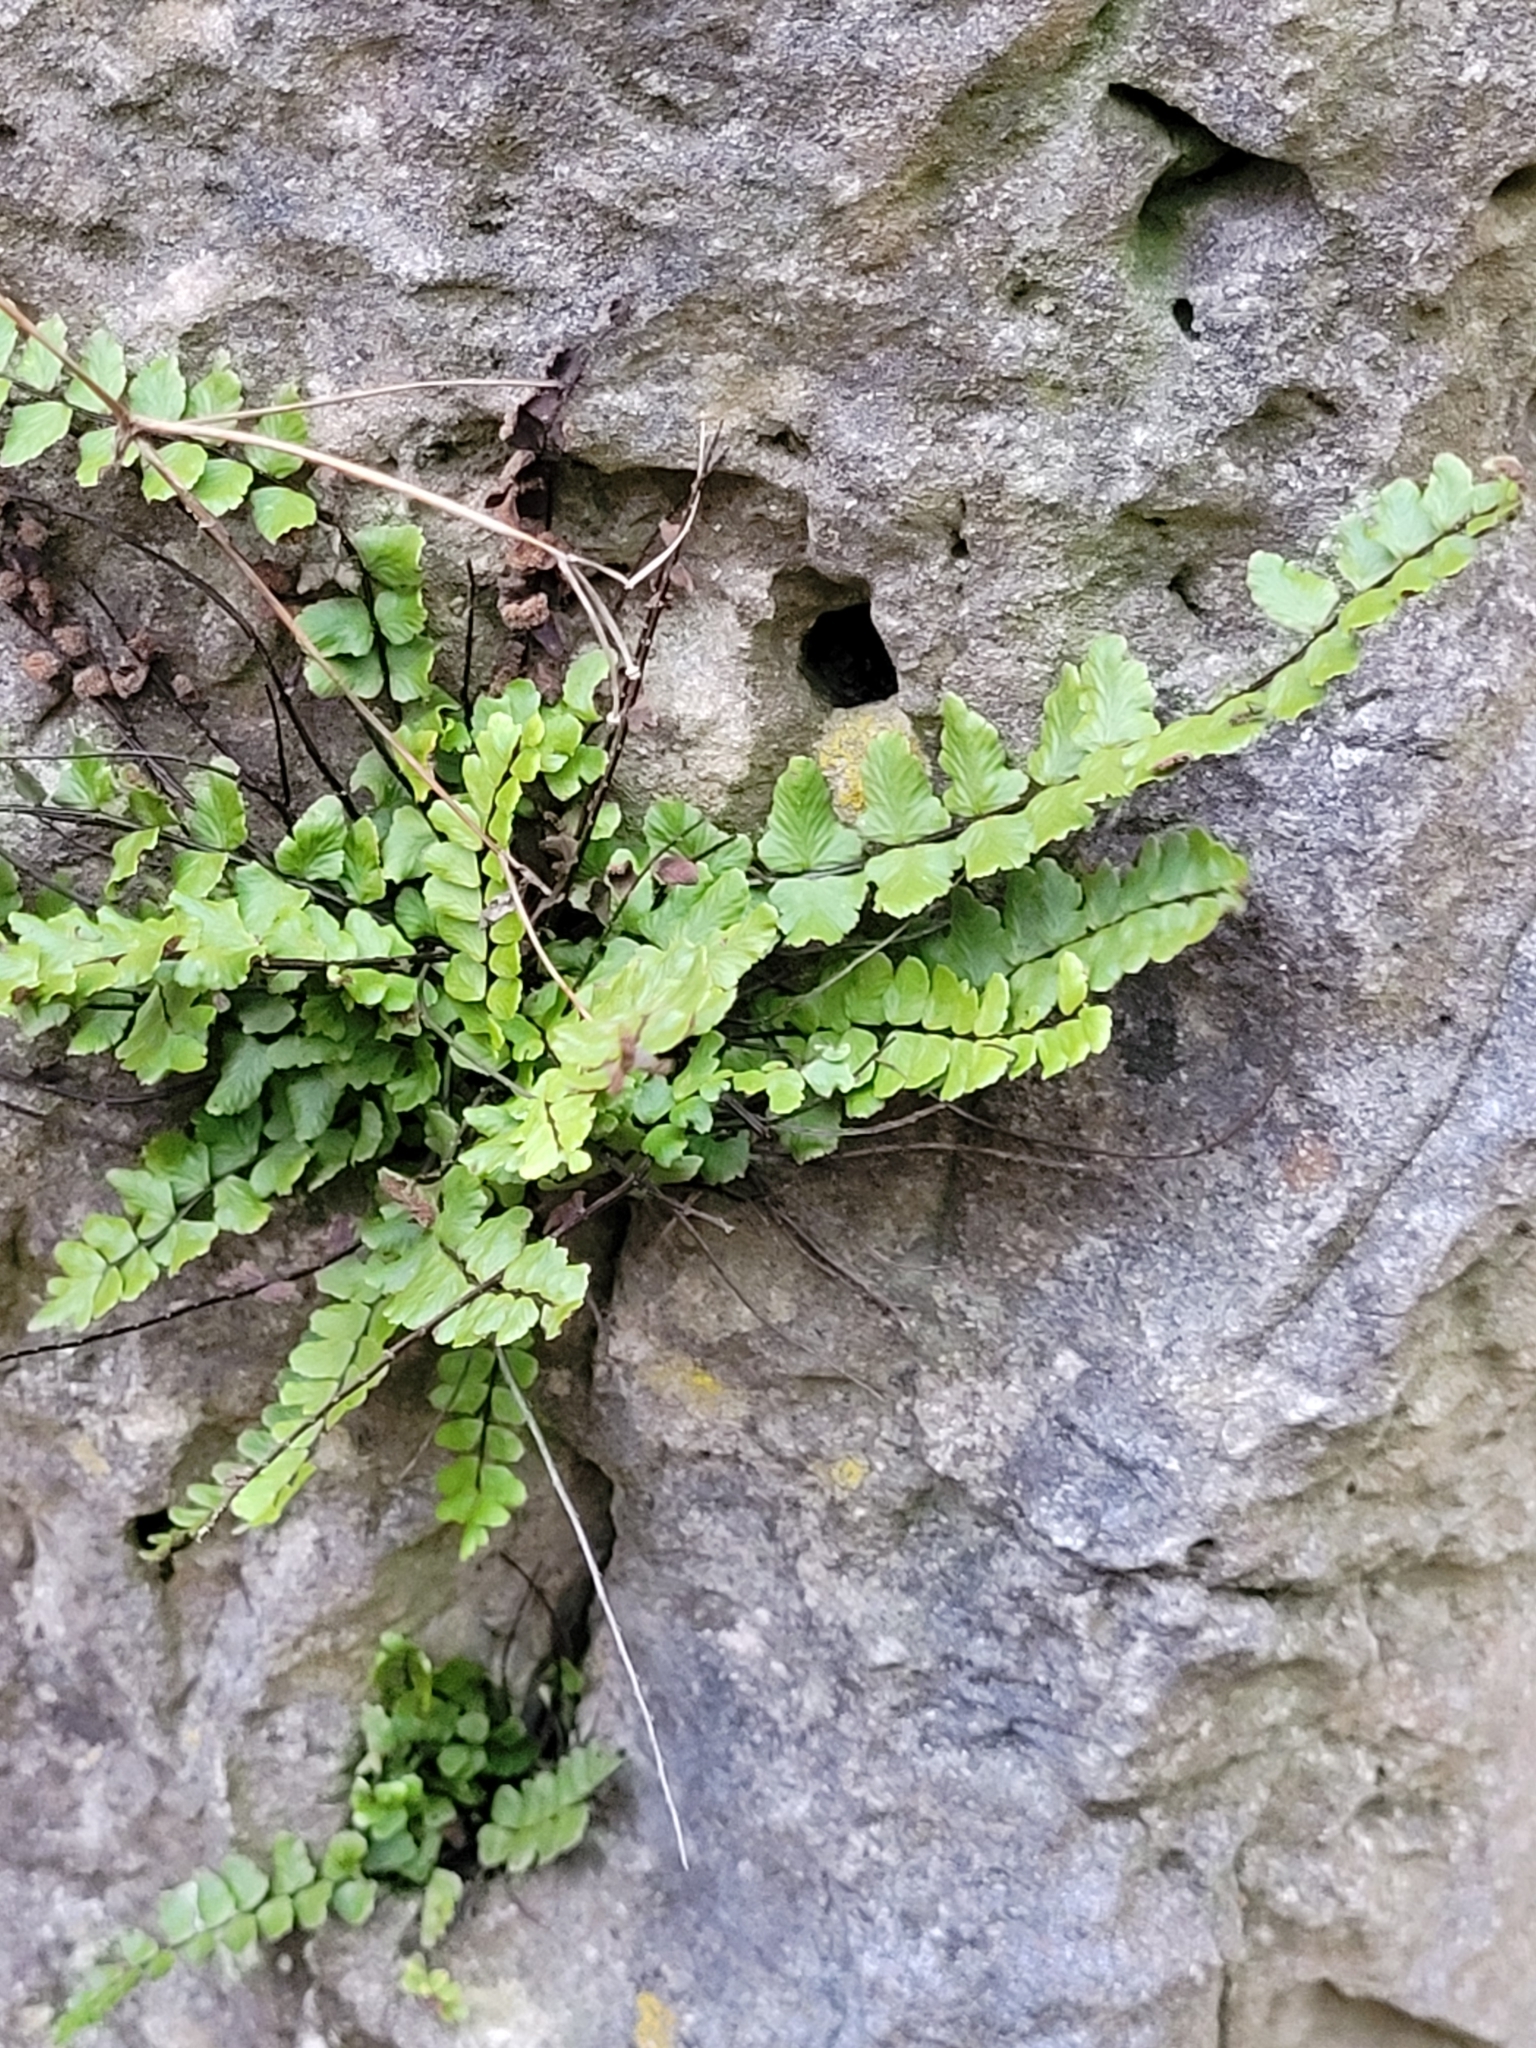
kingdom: Plantae
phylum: Tracheophyta
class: Polypodiopsida
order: Polypodiales
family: Aspleniaceae
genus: Asplenium
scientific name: Asplenium trichomanes
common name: Maidenhair spleenwort
